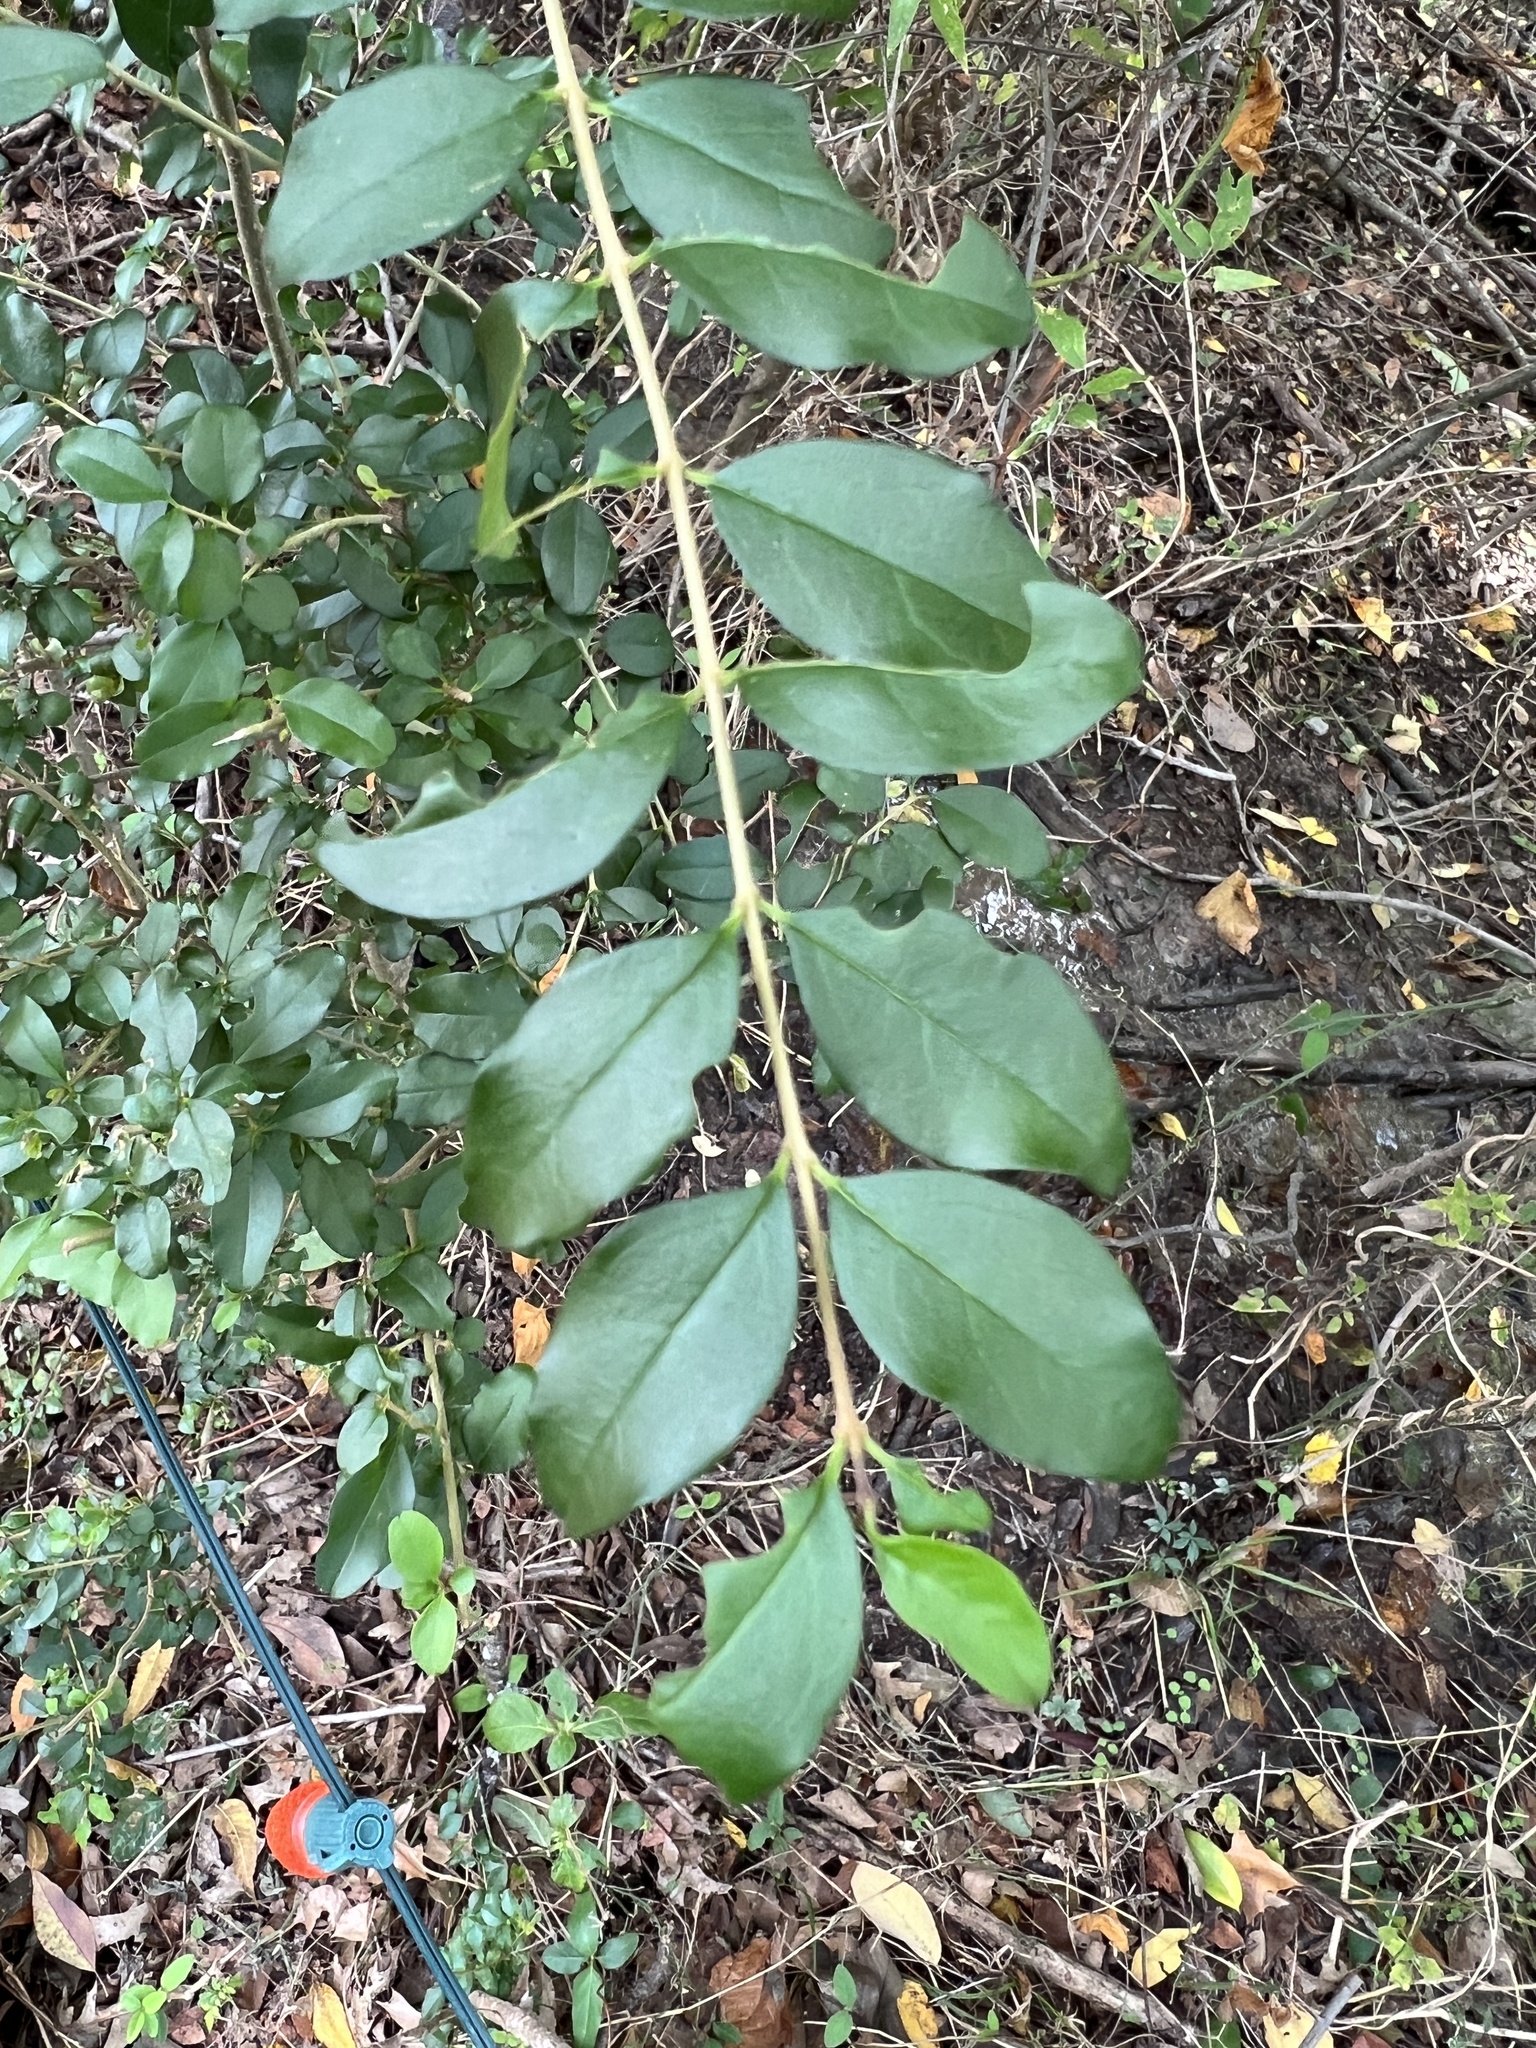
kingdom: Plantae
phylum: Tracheophyta
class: Magnoliopsida
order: Lamiales
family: Oleaceae
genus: Ligustrum
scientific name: Ligustrum sinense
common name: Chinese privet
